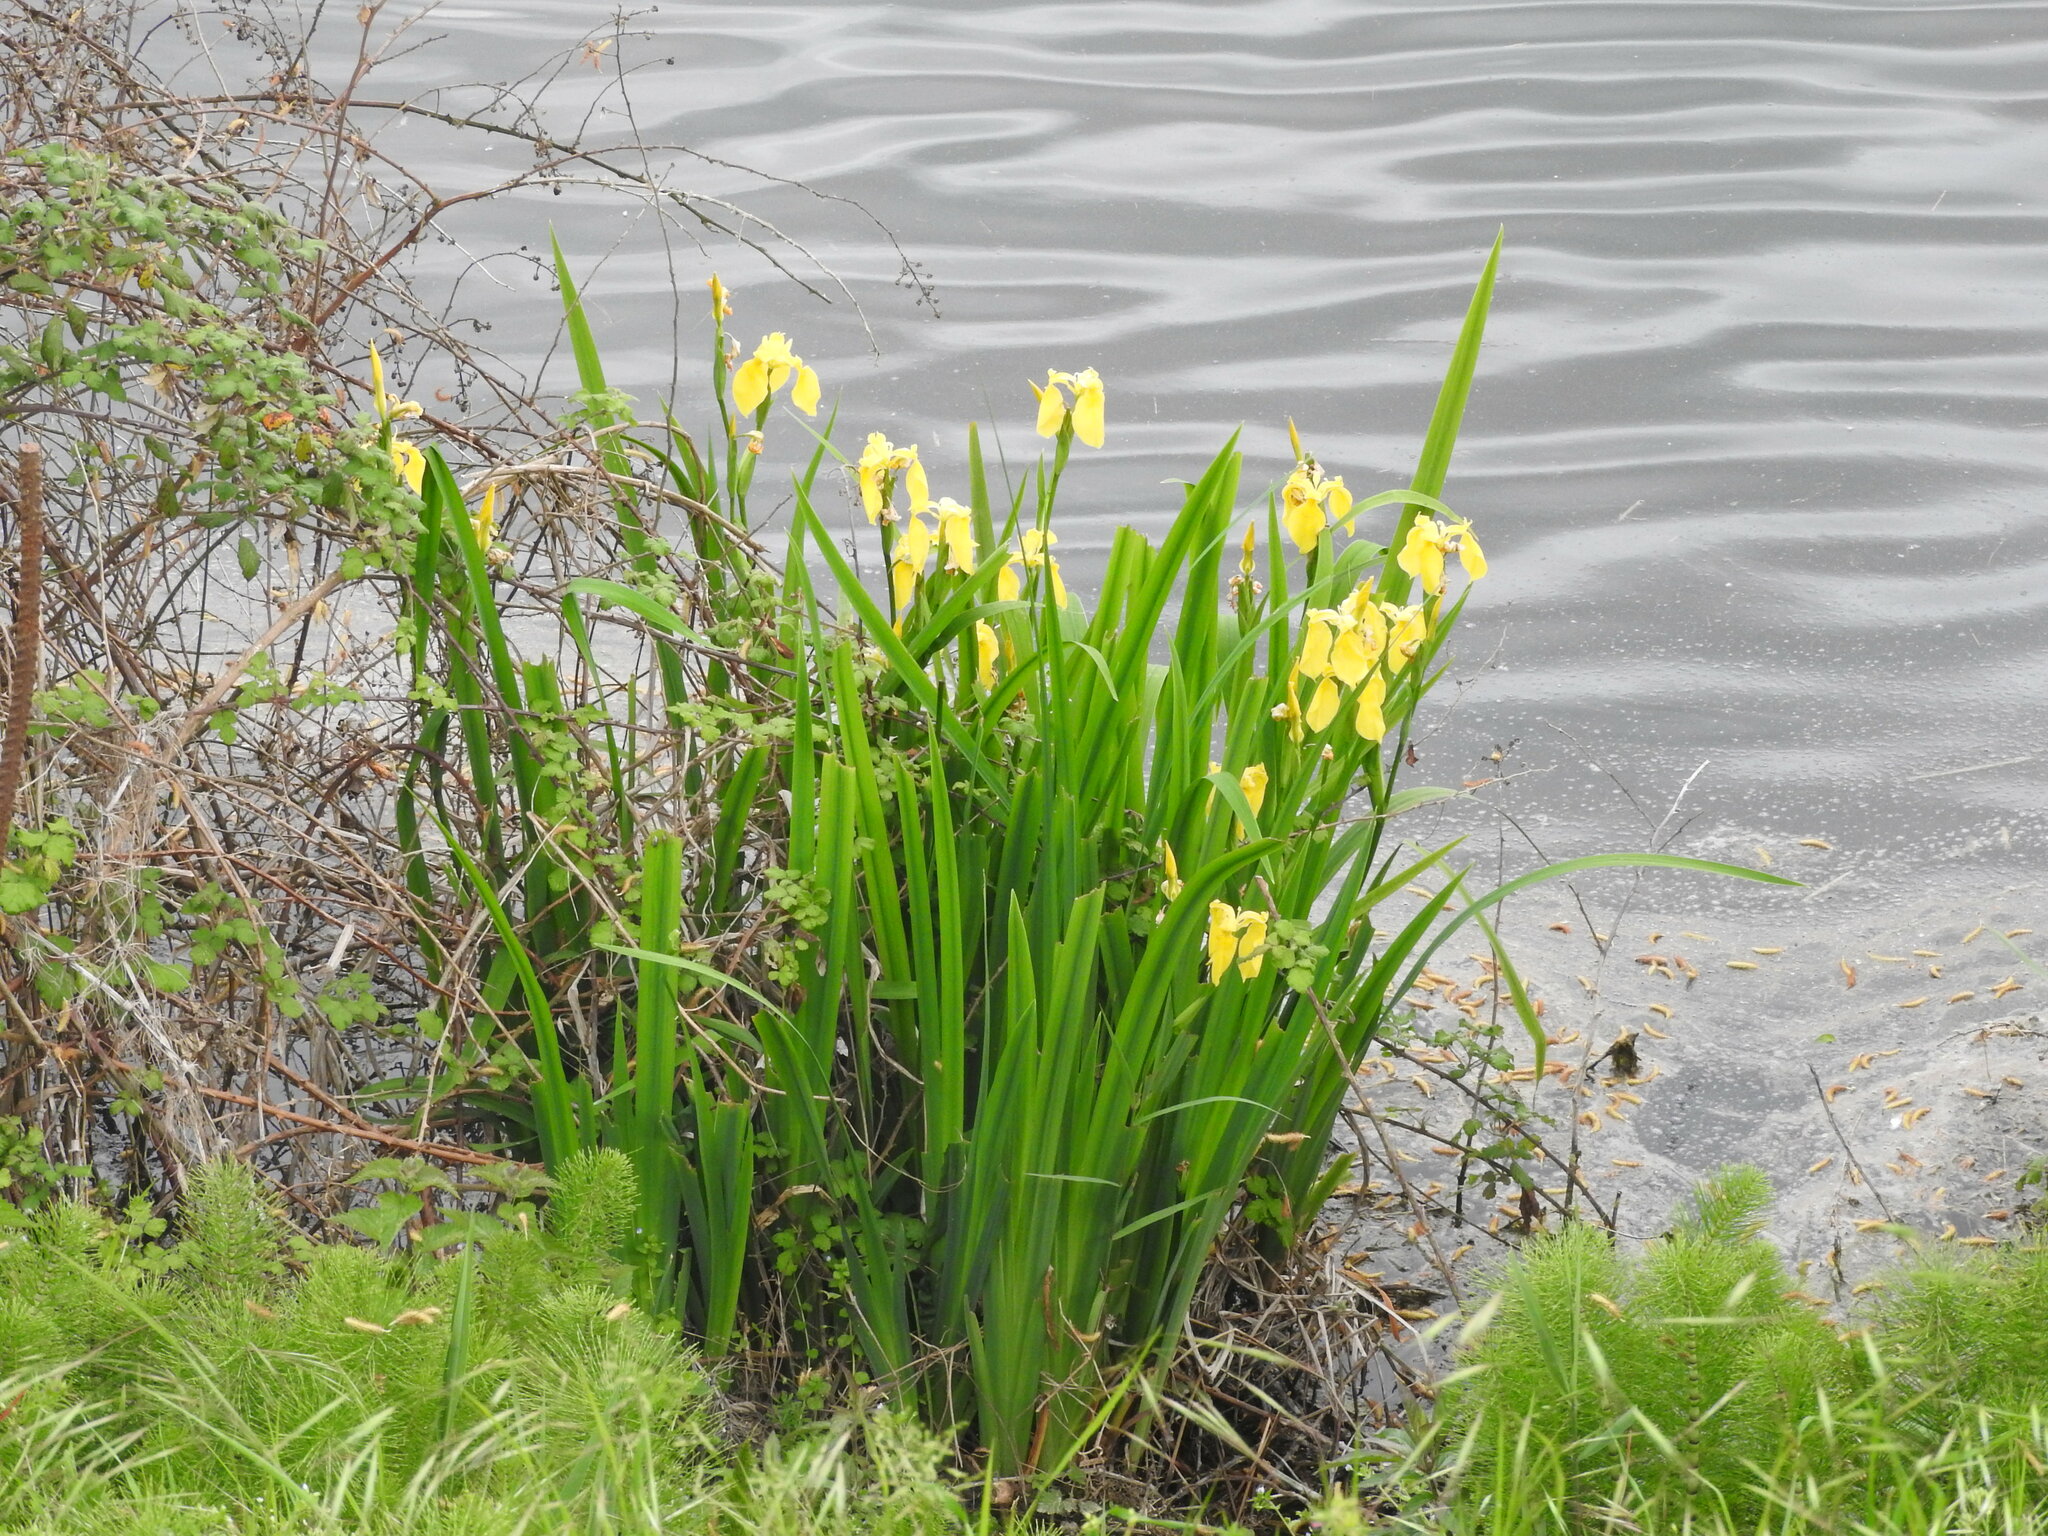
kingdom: Plantae
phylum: Tracheophyta
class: Liliopsida
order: Asparagales
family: Iridaceae
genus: Iris
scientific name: Iris pseudacorus
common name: Yellow flag
